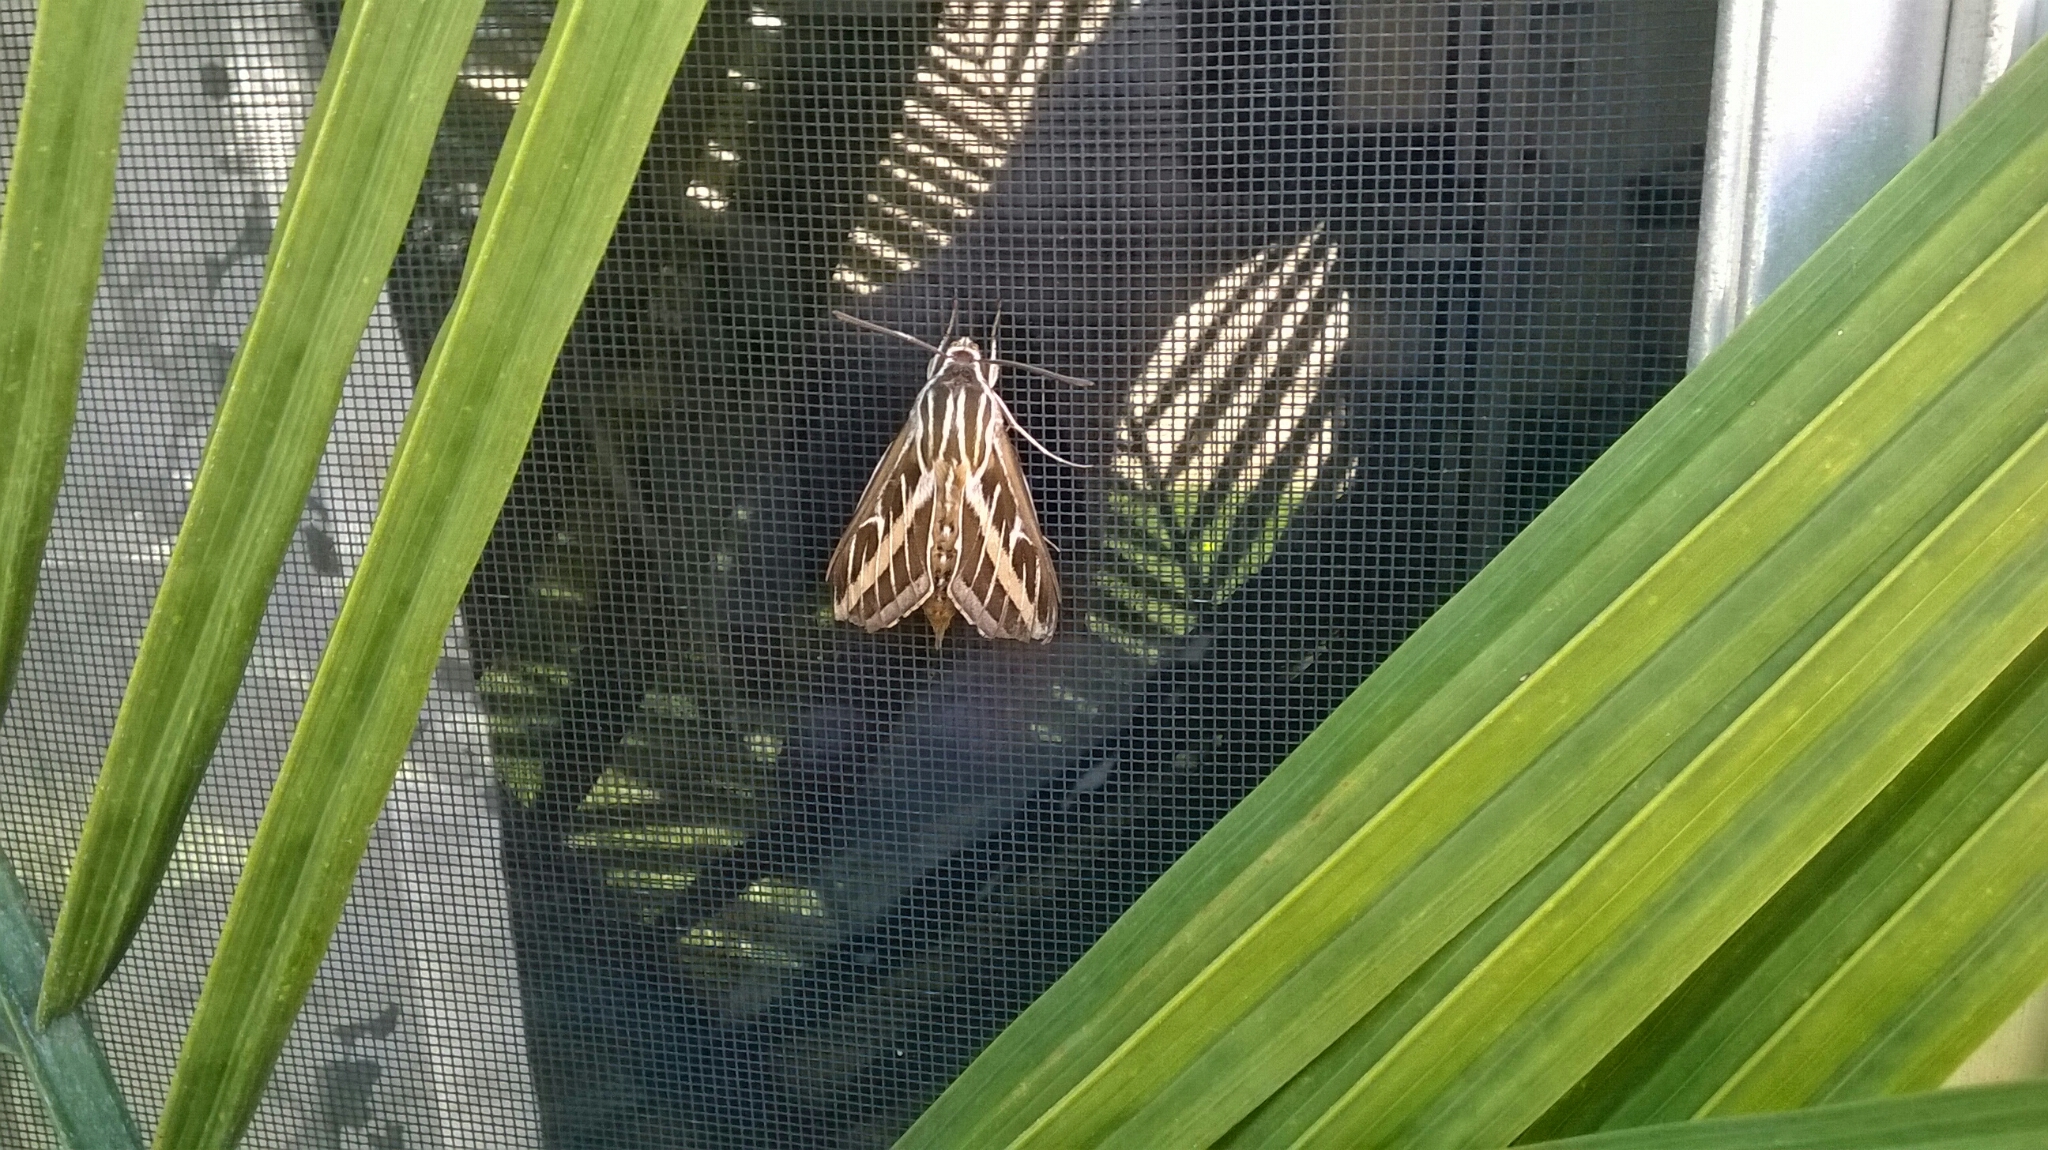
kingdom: Animalia
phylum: Arthropoda
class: Insecta
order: Lepidoptera
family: Sphingidae
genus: Hyles
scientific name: Hyles lineata
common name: White-lined sphinx
